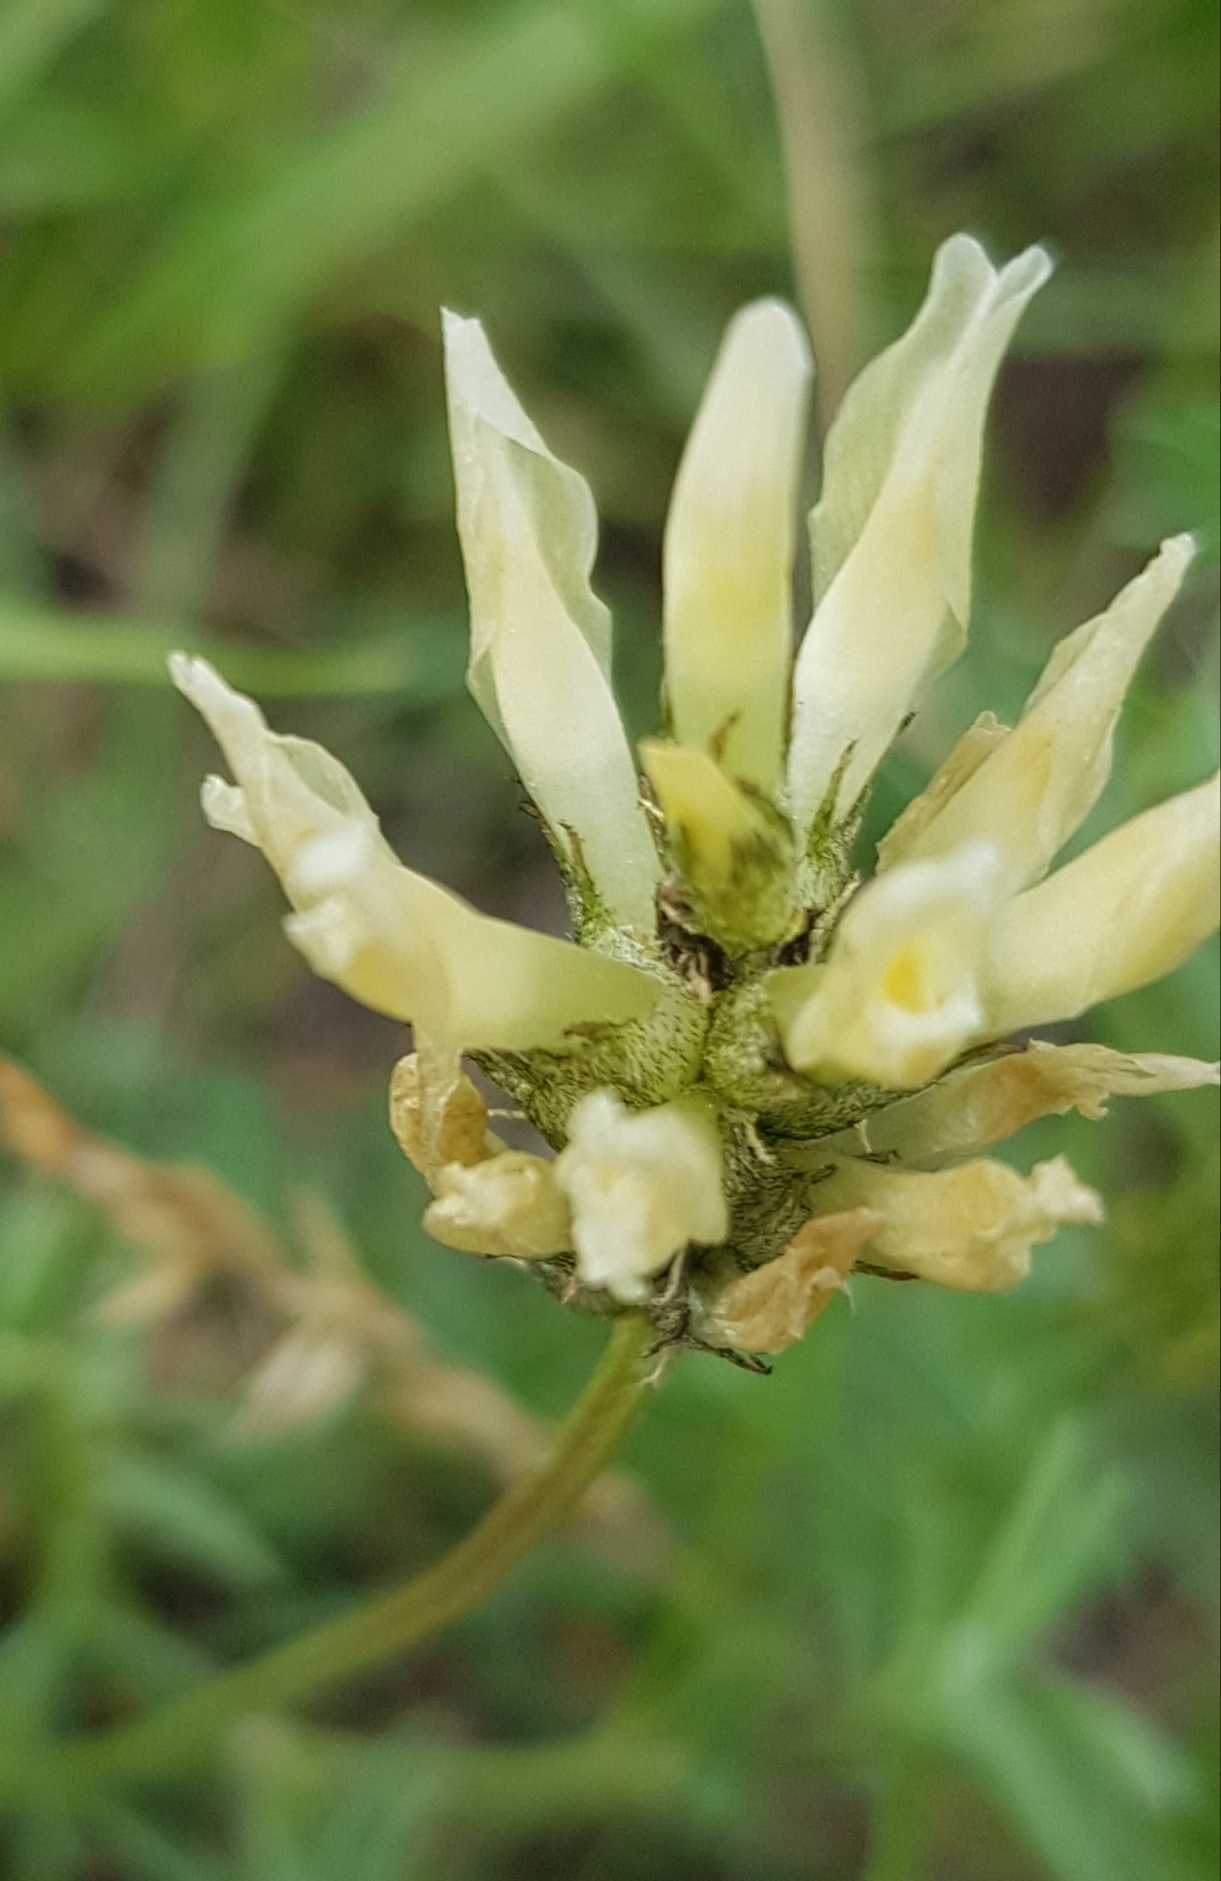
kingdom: Plantae
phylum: Tracheophyta
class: Magnoliopsida
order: Fabales
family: Fabaceae
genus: Astragalus
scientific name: Astragalus laxmannii
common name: Laxmann's milk-vetch
